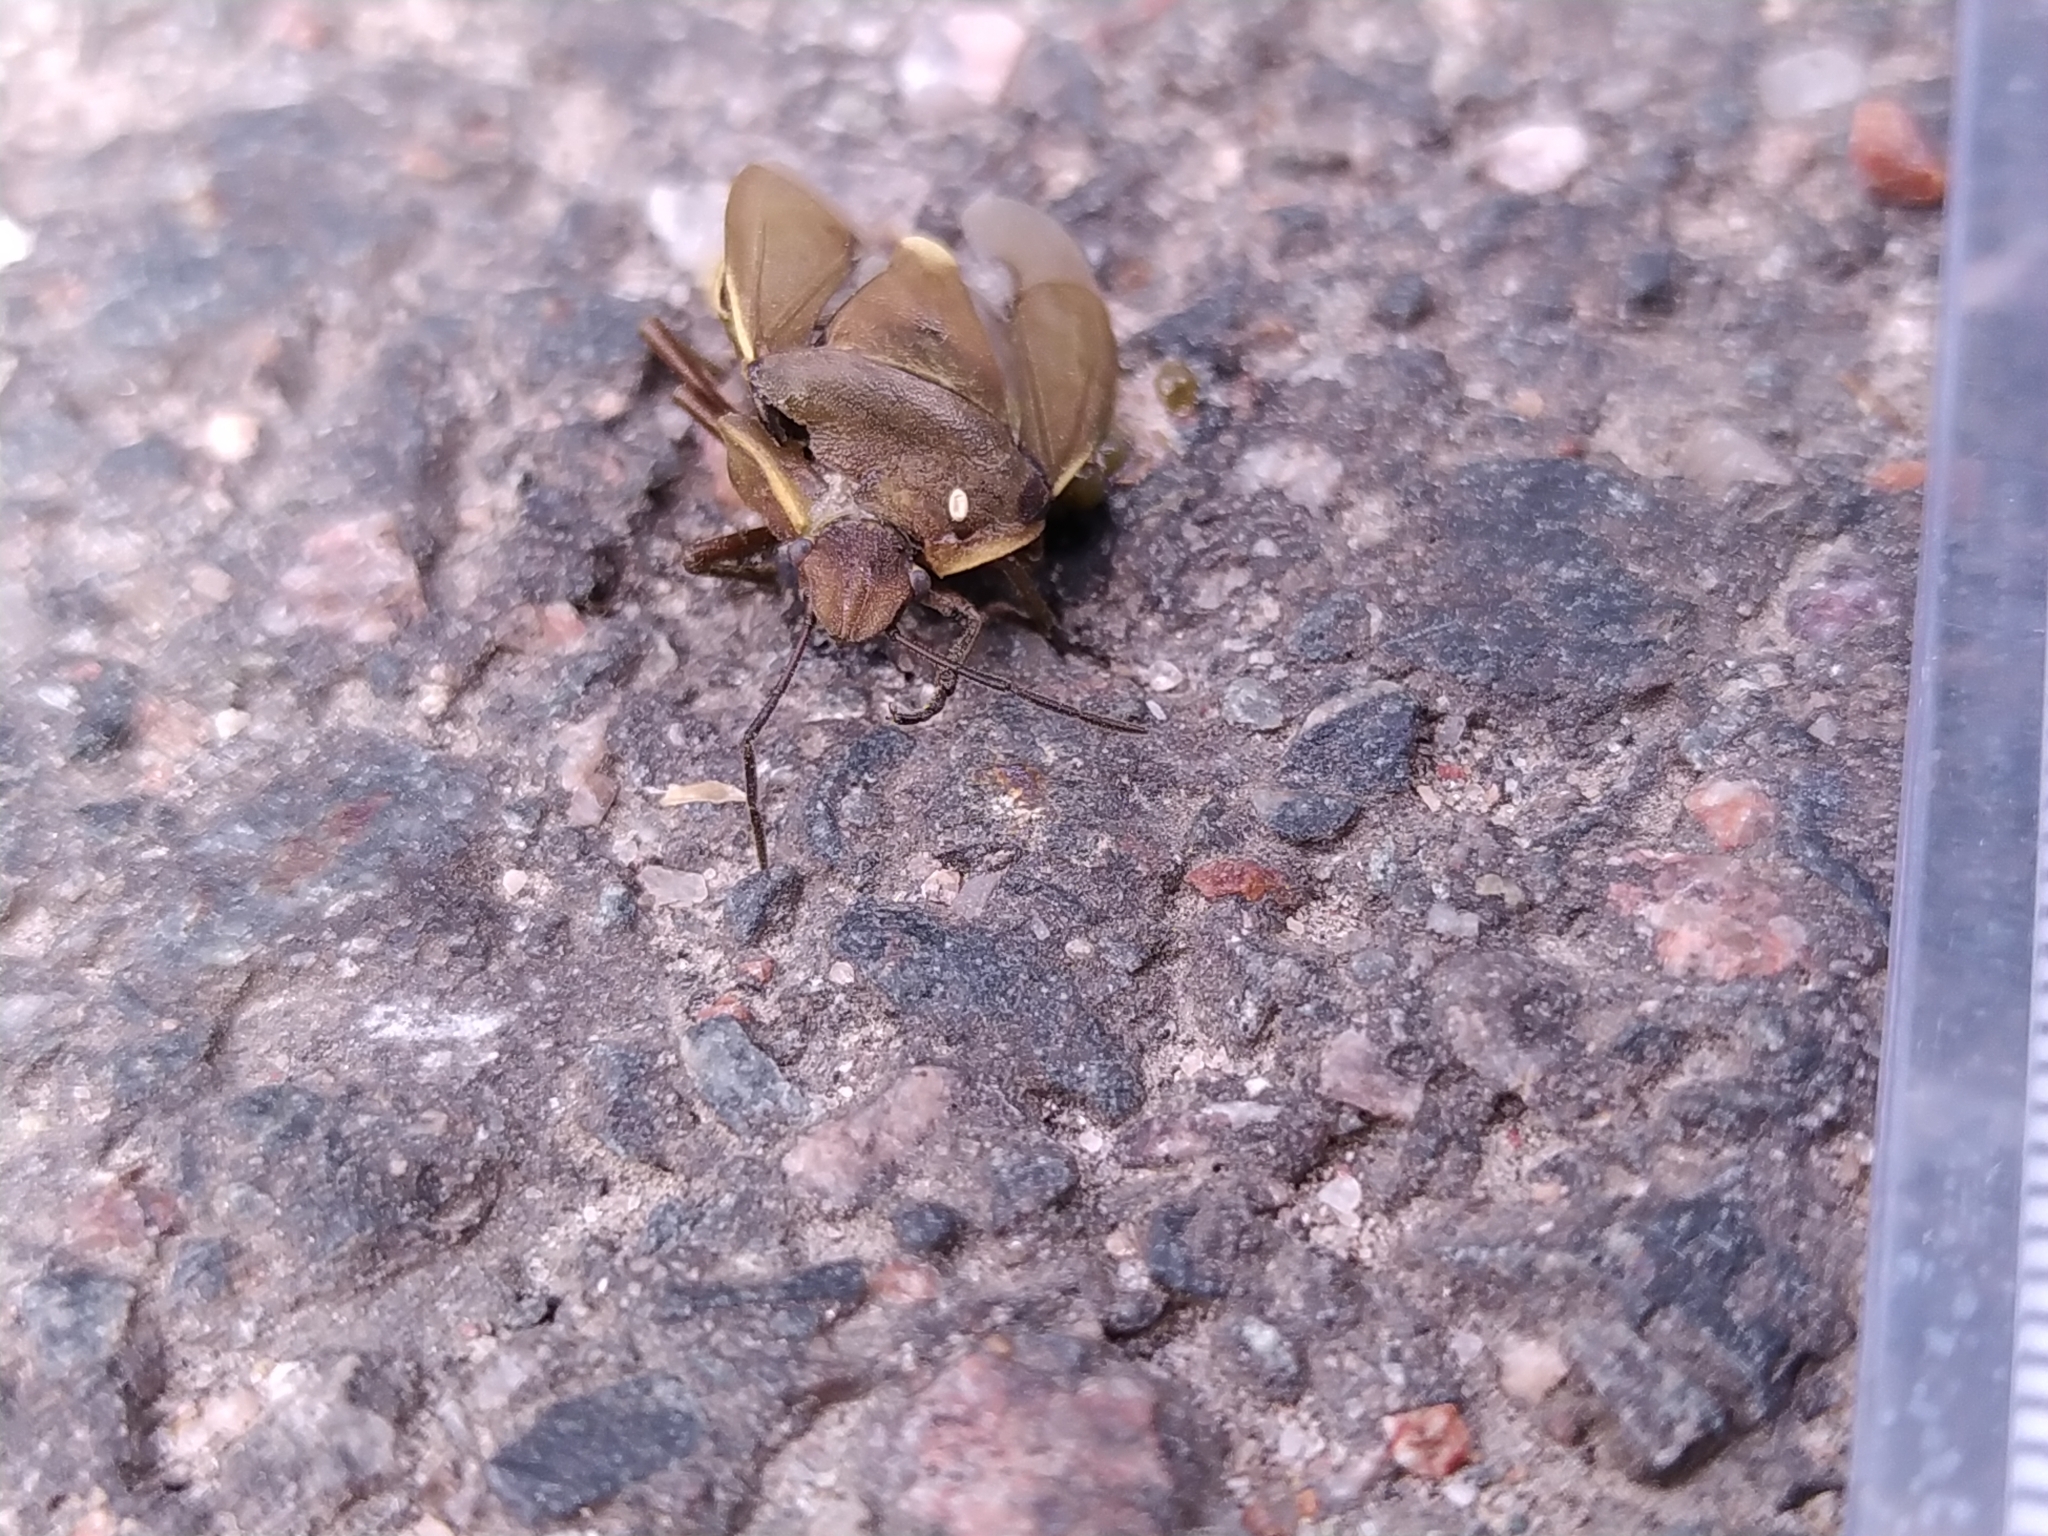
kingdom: Animalia
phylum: Arthropoda
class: Insecta
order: Hemiptera
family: Pentatomidae
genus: Chlorochroa
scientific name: Chlorochroa pinicola
